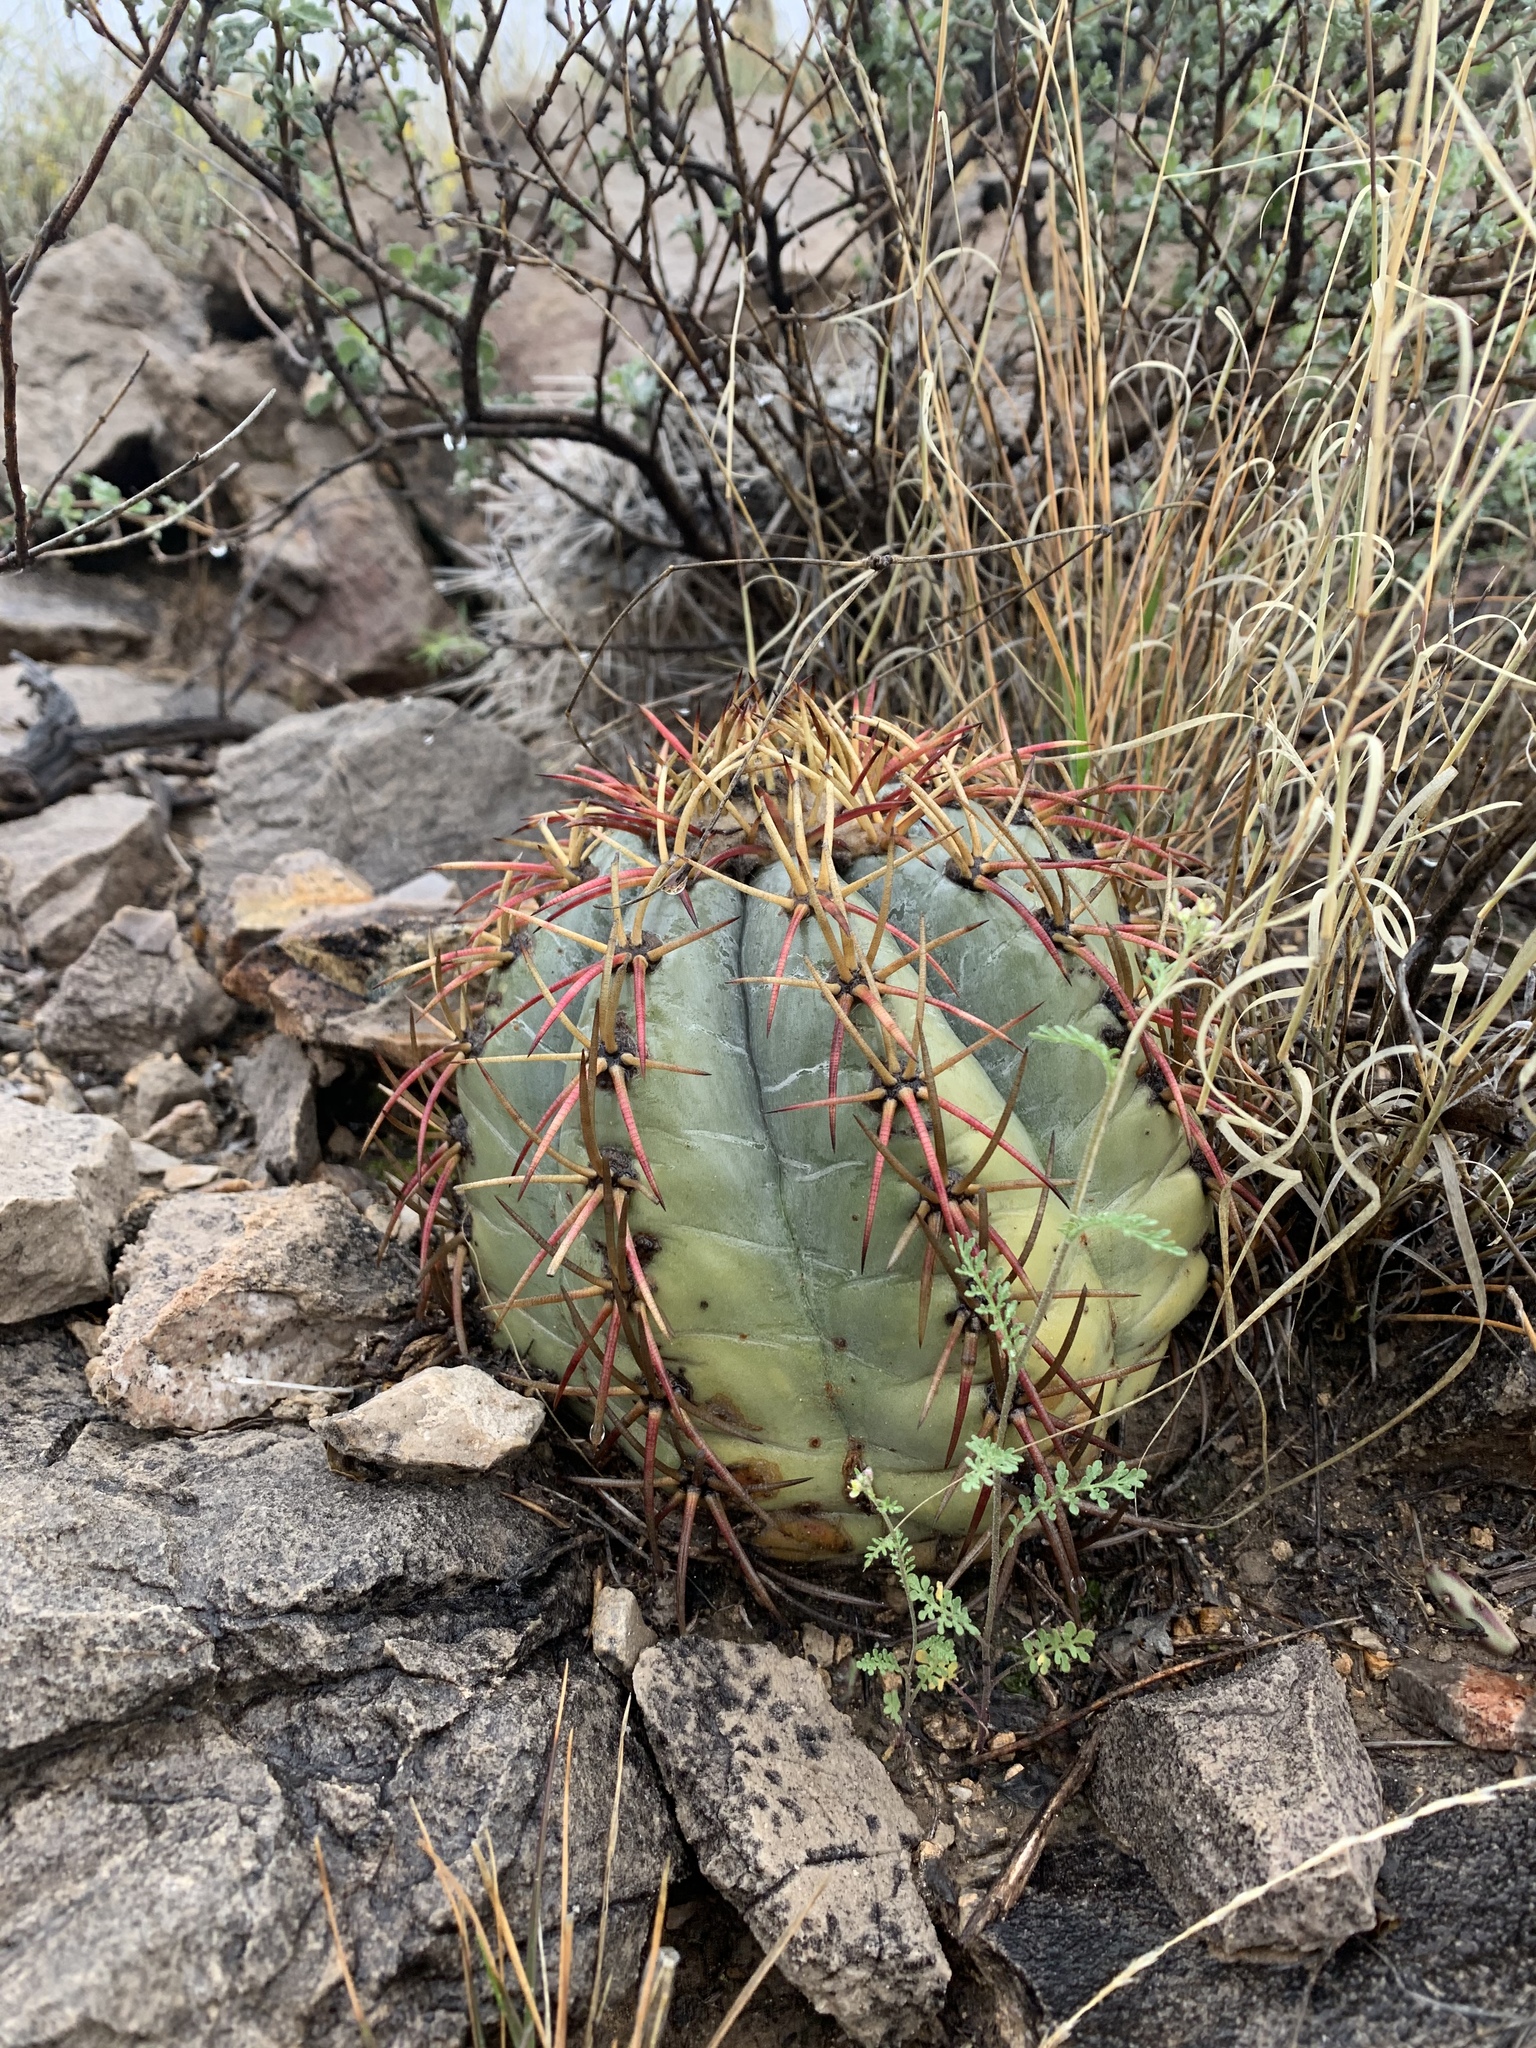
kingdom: Plantae
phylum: Tracheophyta
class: Magnoliopsida
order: Caryophyllales
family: Cactaceae
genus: Echinocactus
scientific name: Echinocactus horizonthalonius
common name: Devilshead
